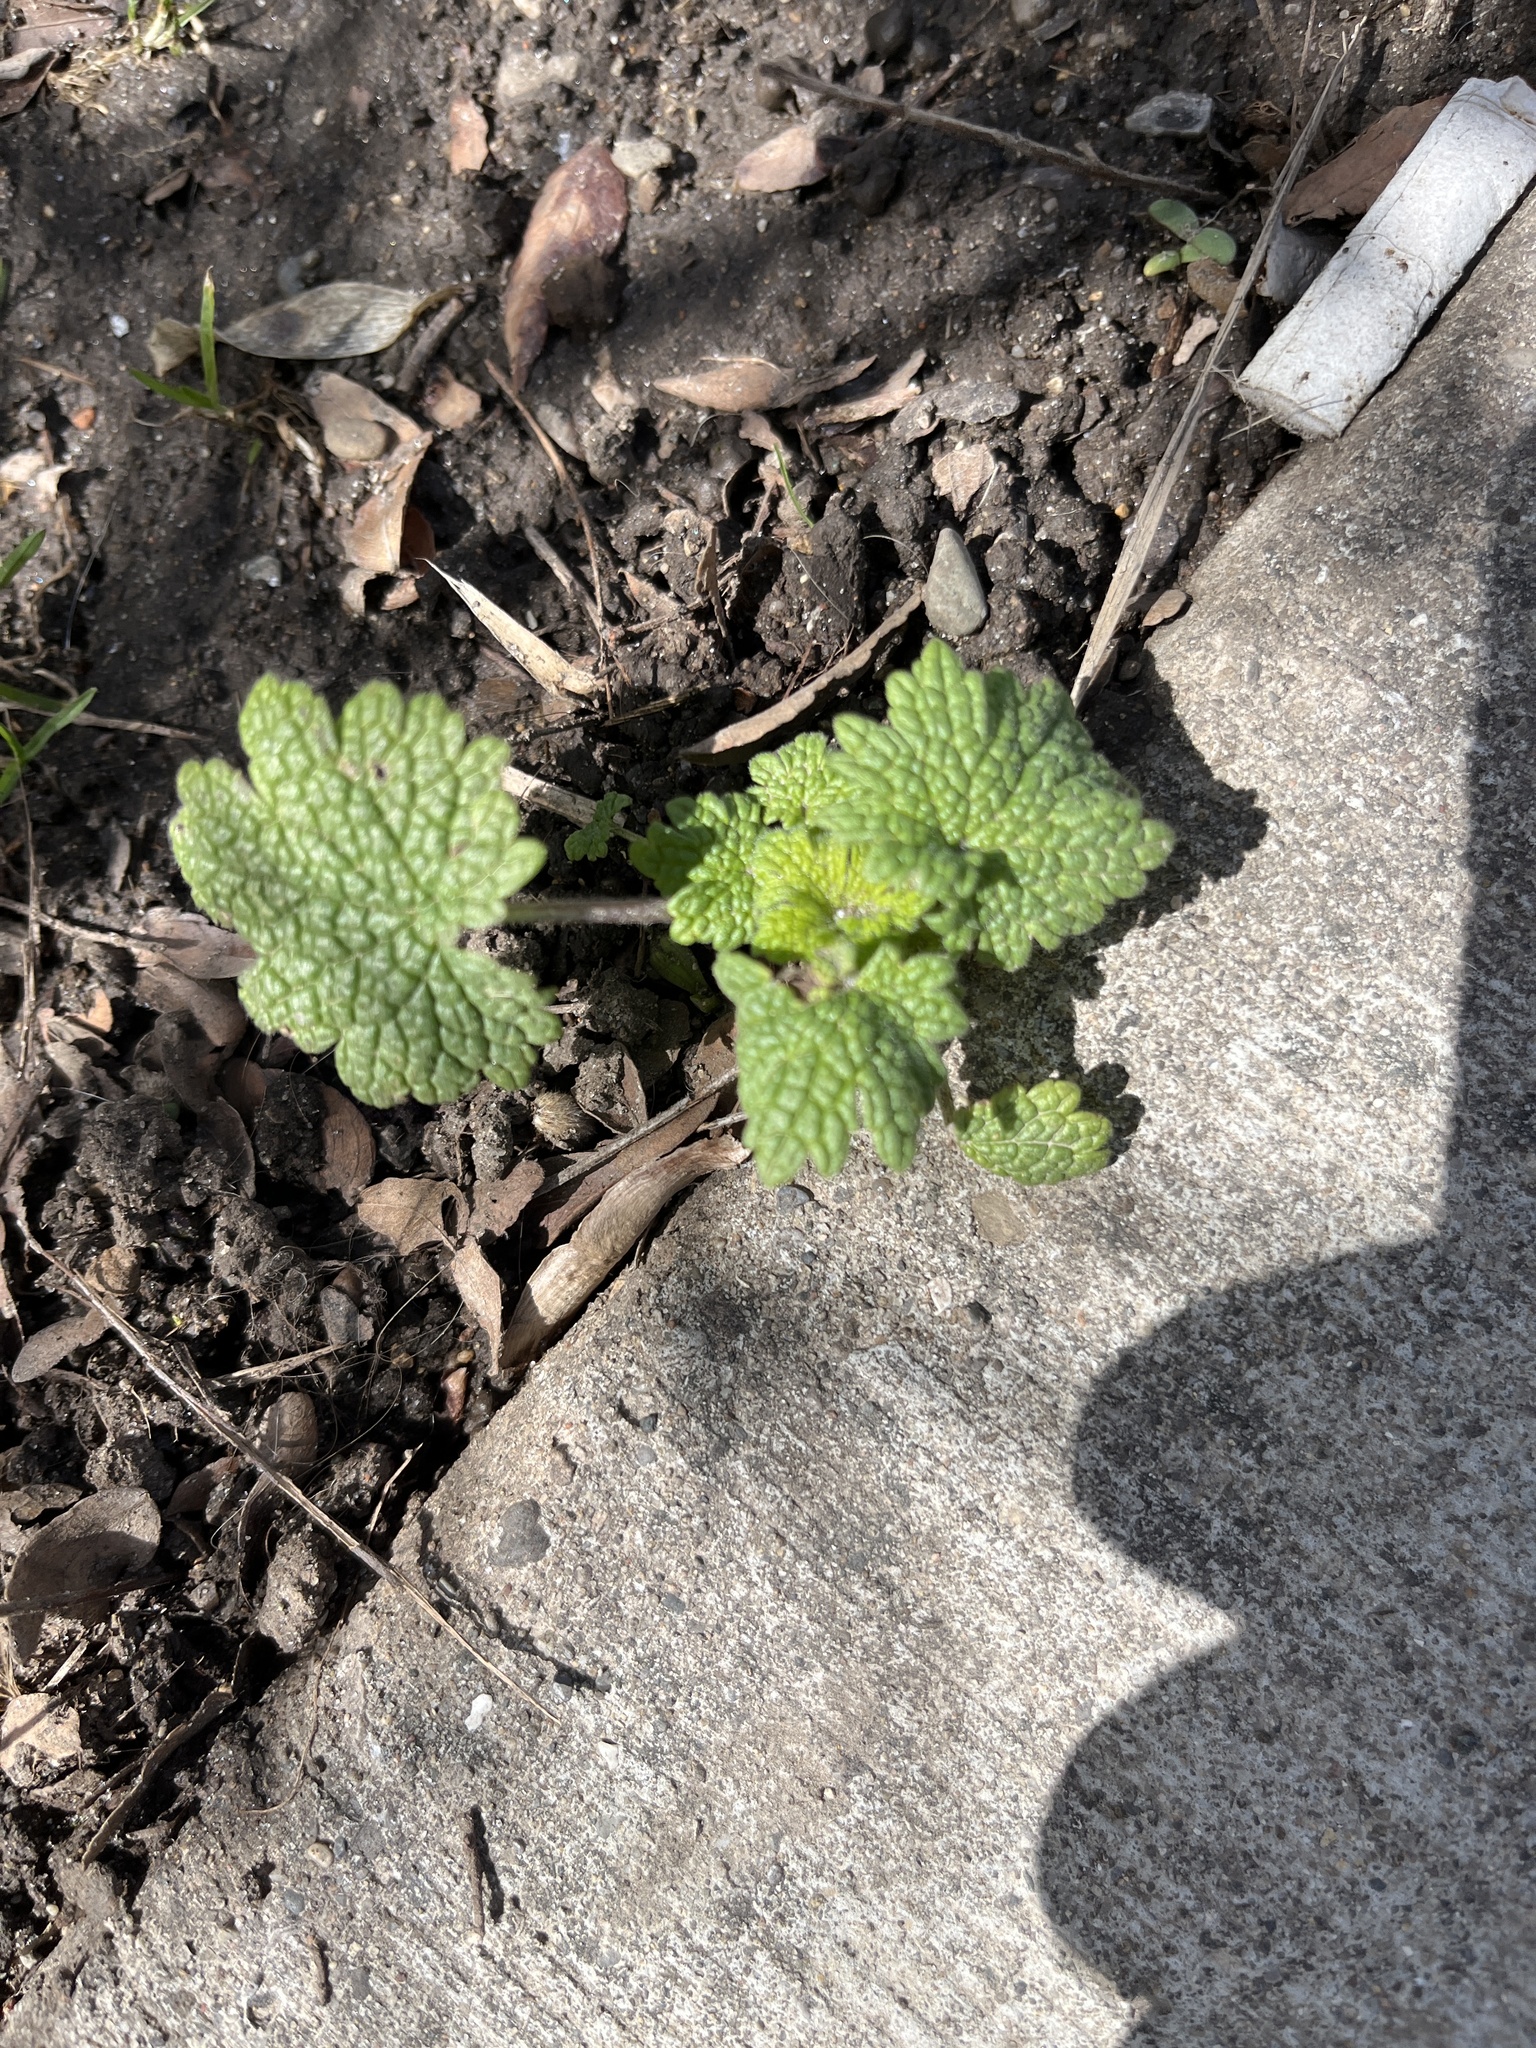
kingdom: Plantae
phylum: Tracheophyta
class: Magnoliopsida
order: Lamiales
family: Lamiaceae
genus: Leonurus
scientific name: Leonurus cardiaca
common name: Motherwort
